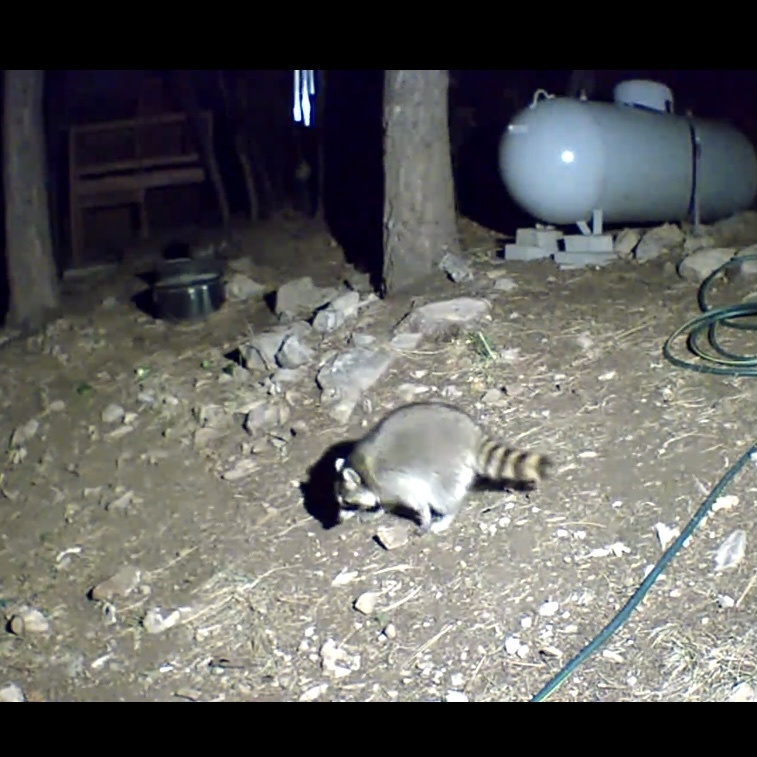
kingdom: Animalia
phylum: Chordata
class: Mammalia
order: Carnivora
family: Procyonidae
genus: Procyon
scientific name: Procyon lotor
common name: Raccoon
